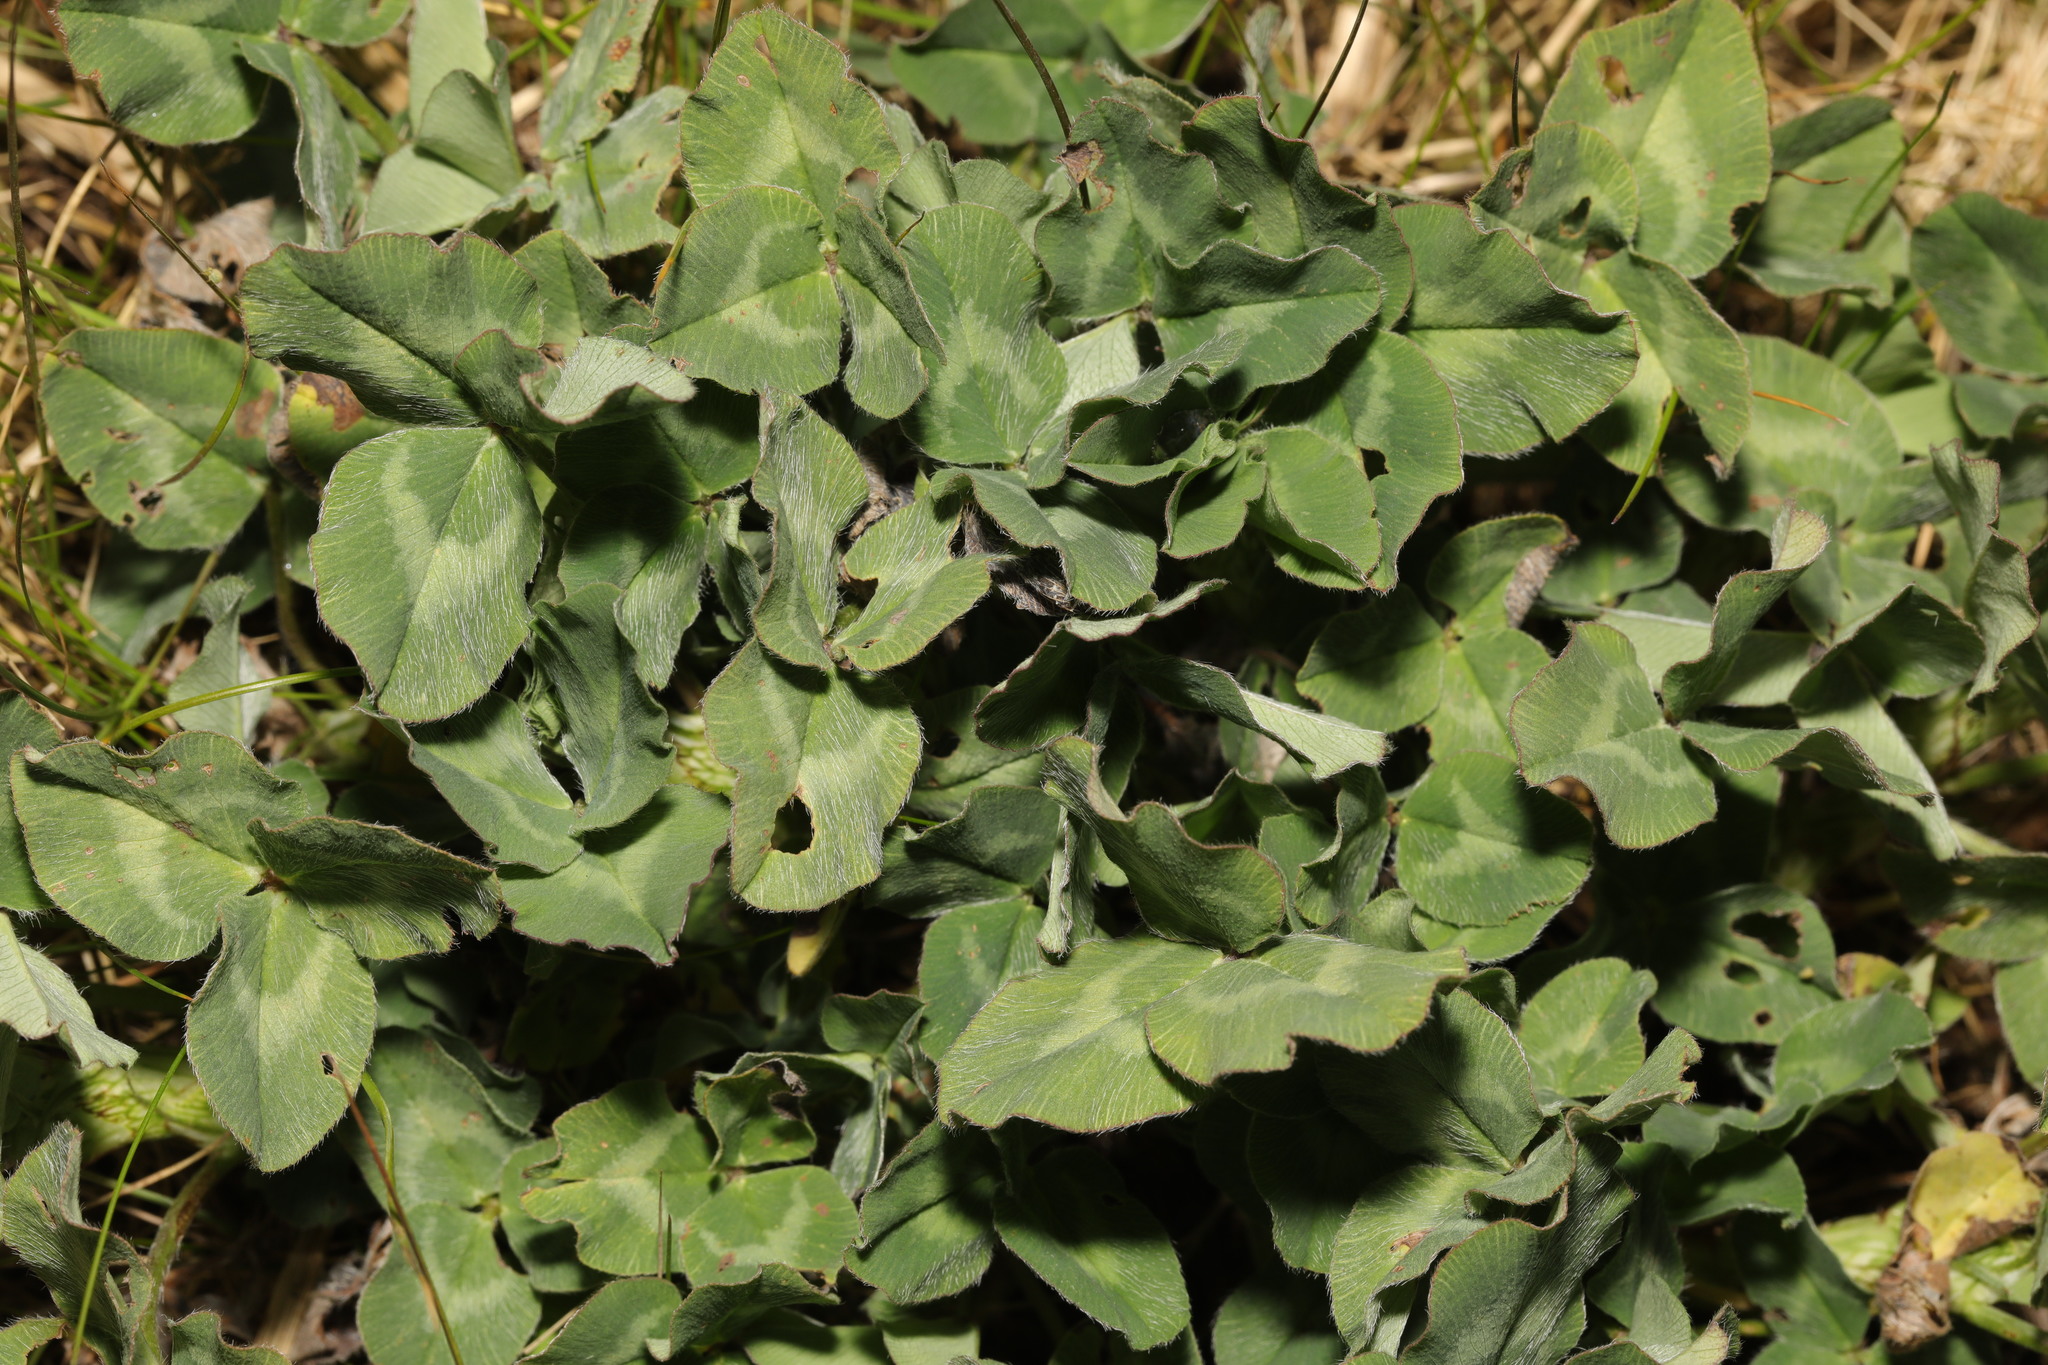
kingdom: Plantae
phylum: Tracheophyta
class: Magnoliopsida
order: Fabales
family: Fabaceae
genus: Trifolium
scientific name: Trifolium pratense
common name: Red clover
